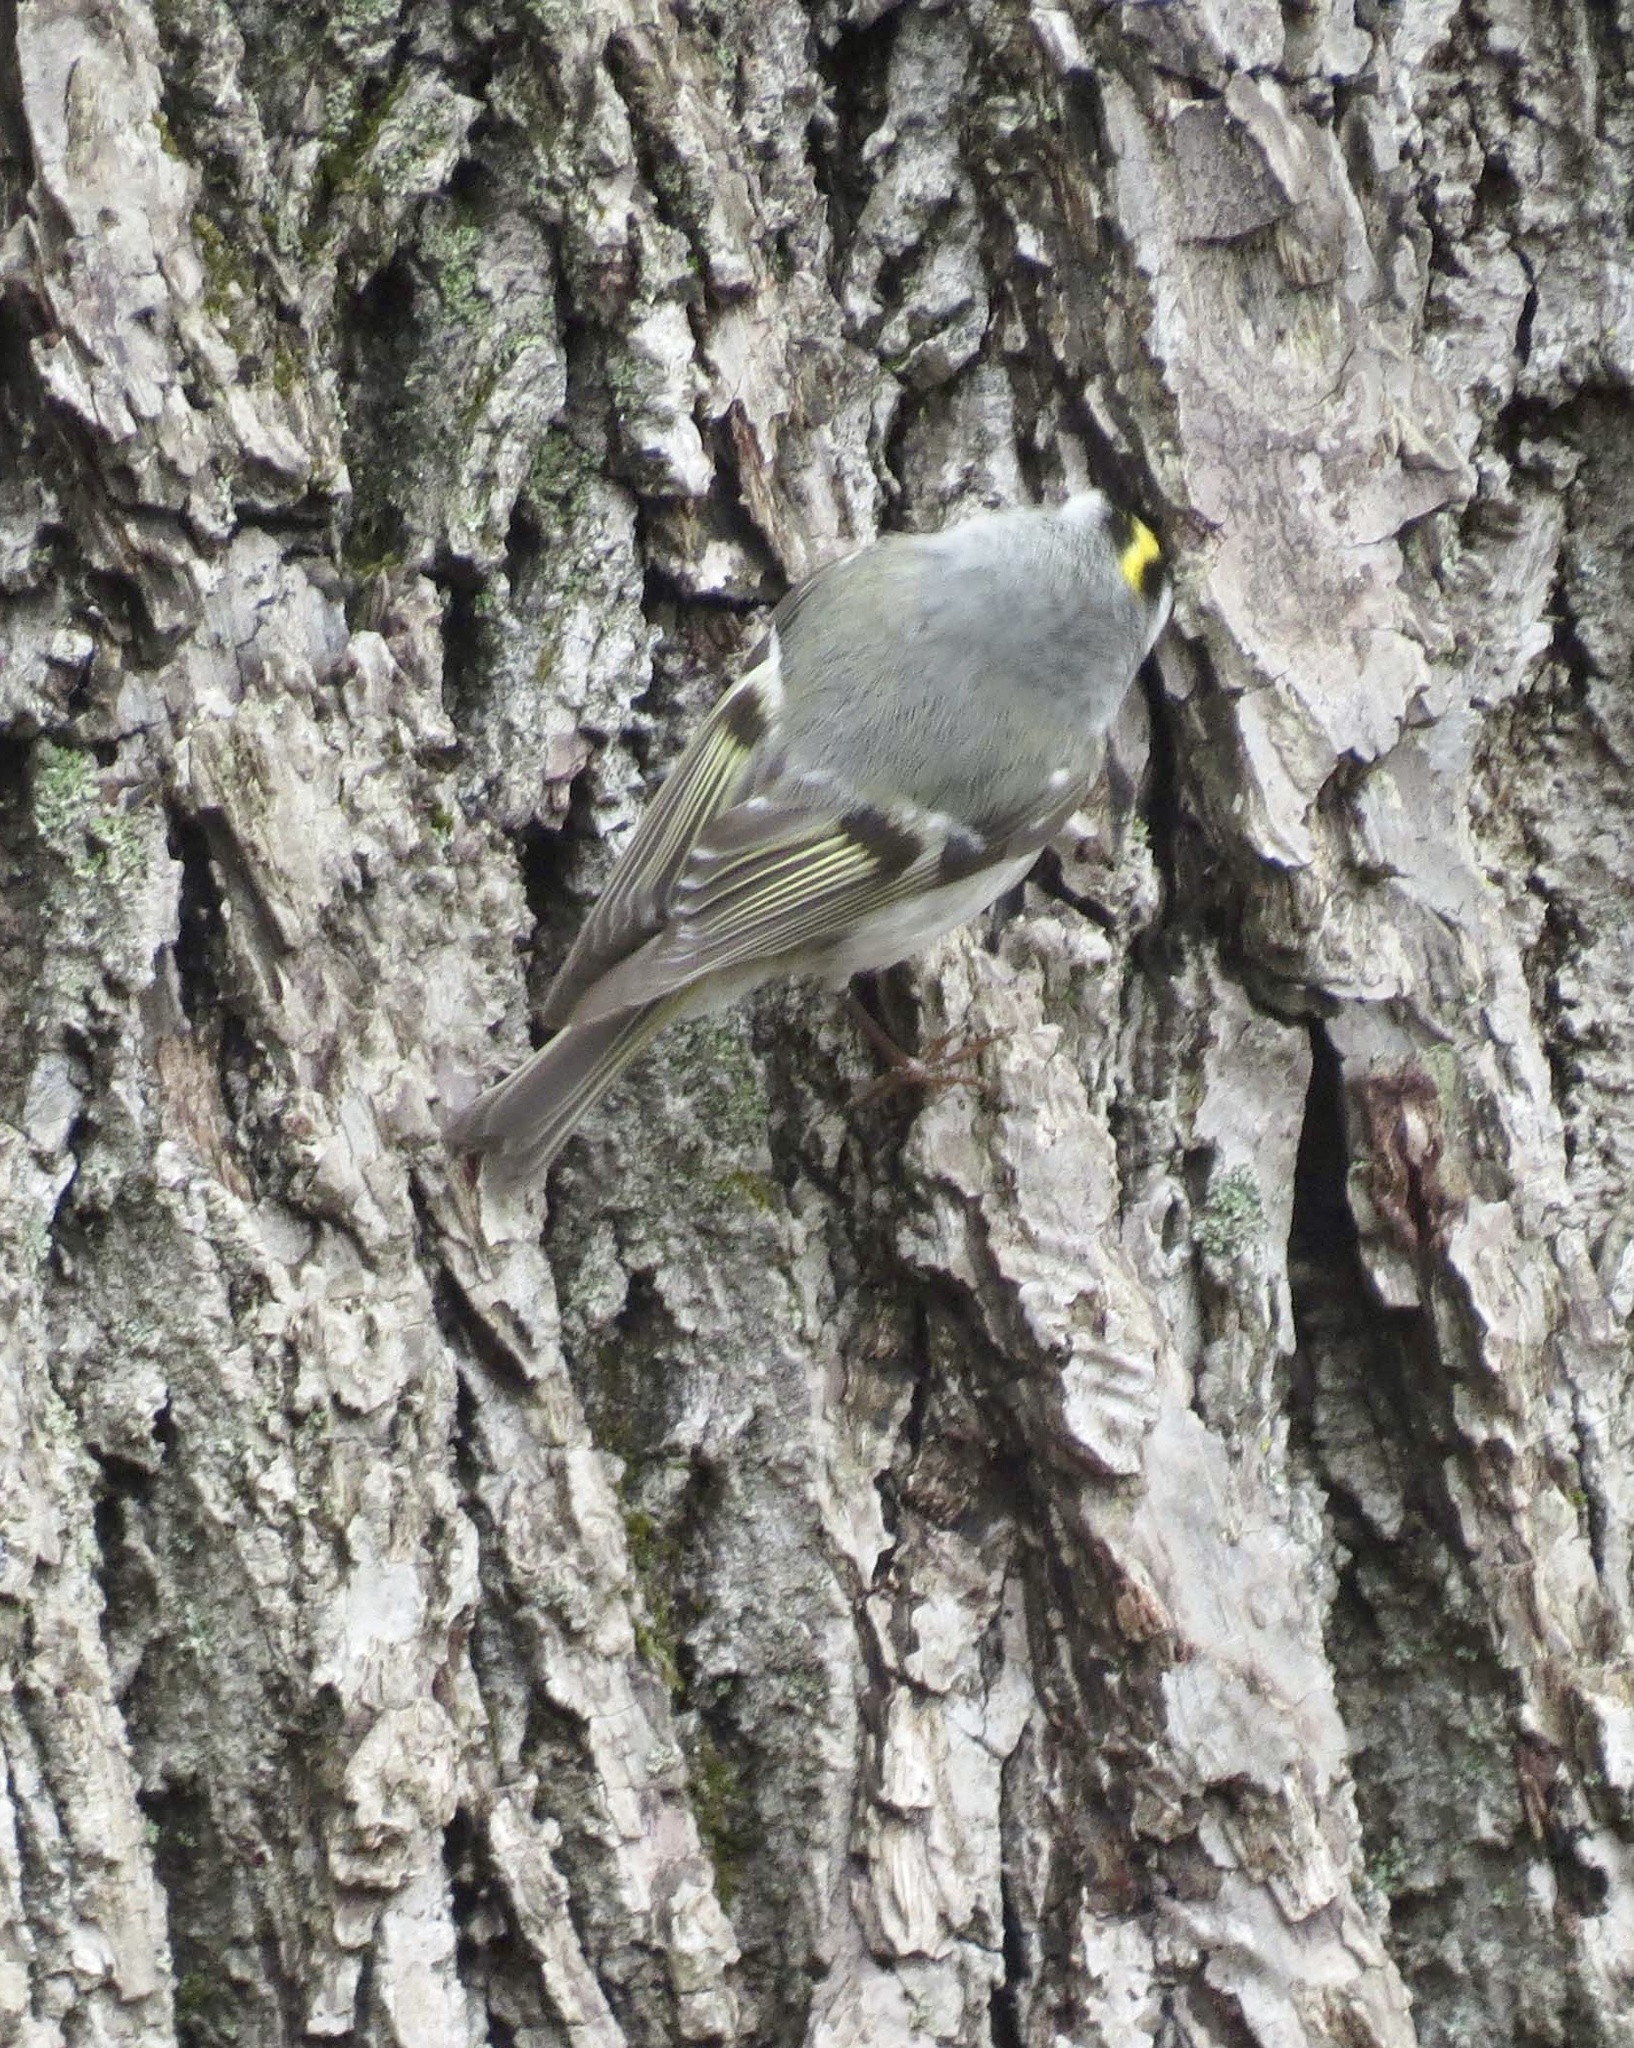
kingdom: Animalia
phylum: Chordata
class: Aves
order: Passeriformes
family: Regulidae
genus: Regulus
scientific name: Regulus satrapa
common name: Golden-crowned kinglet
